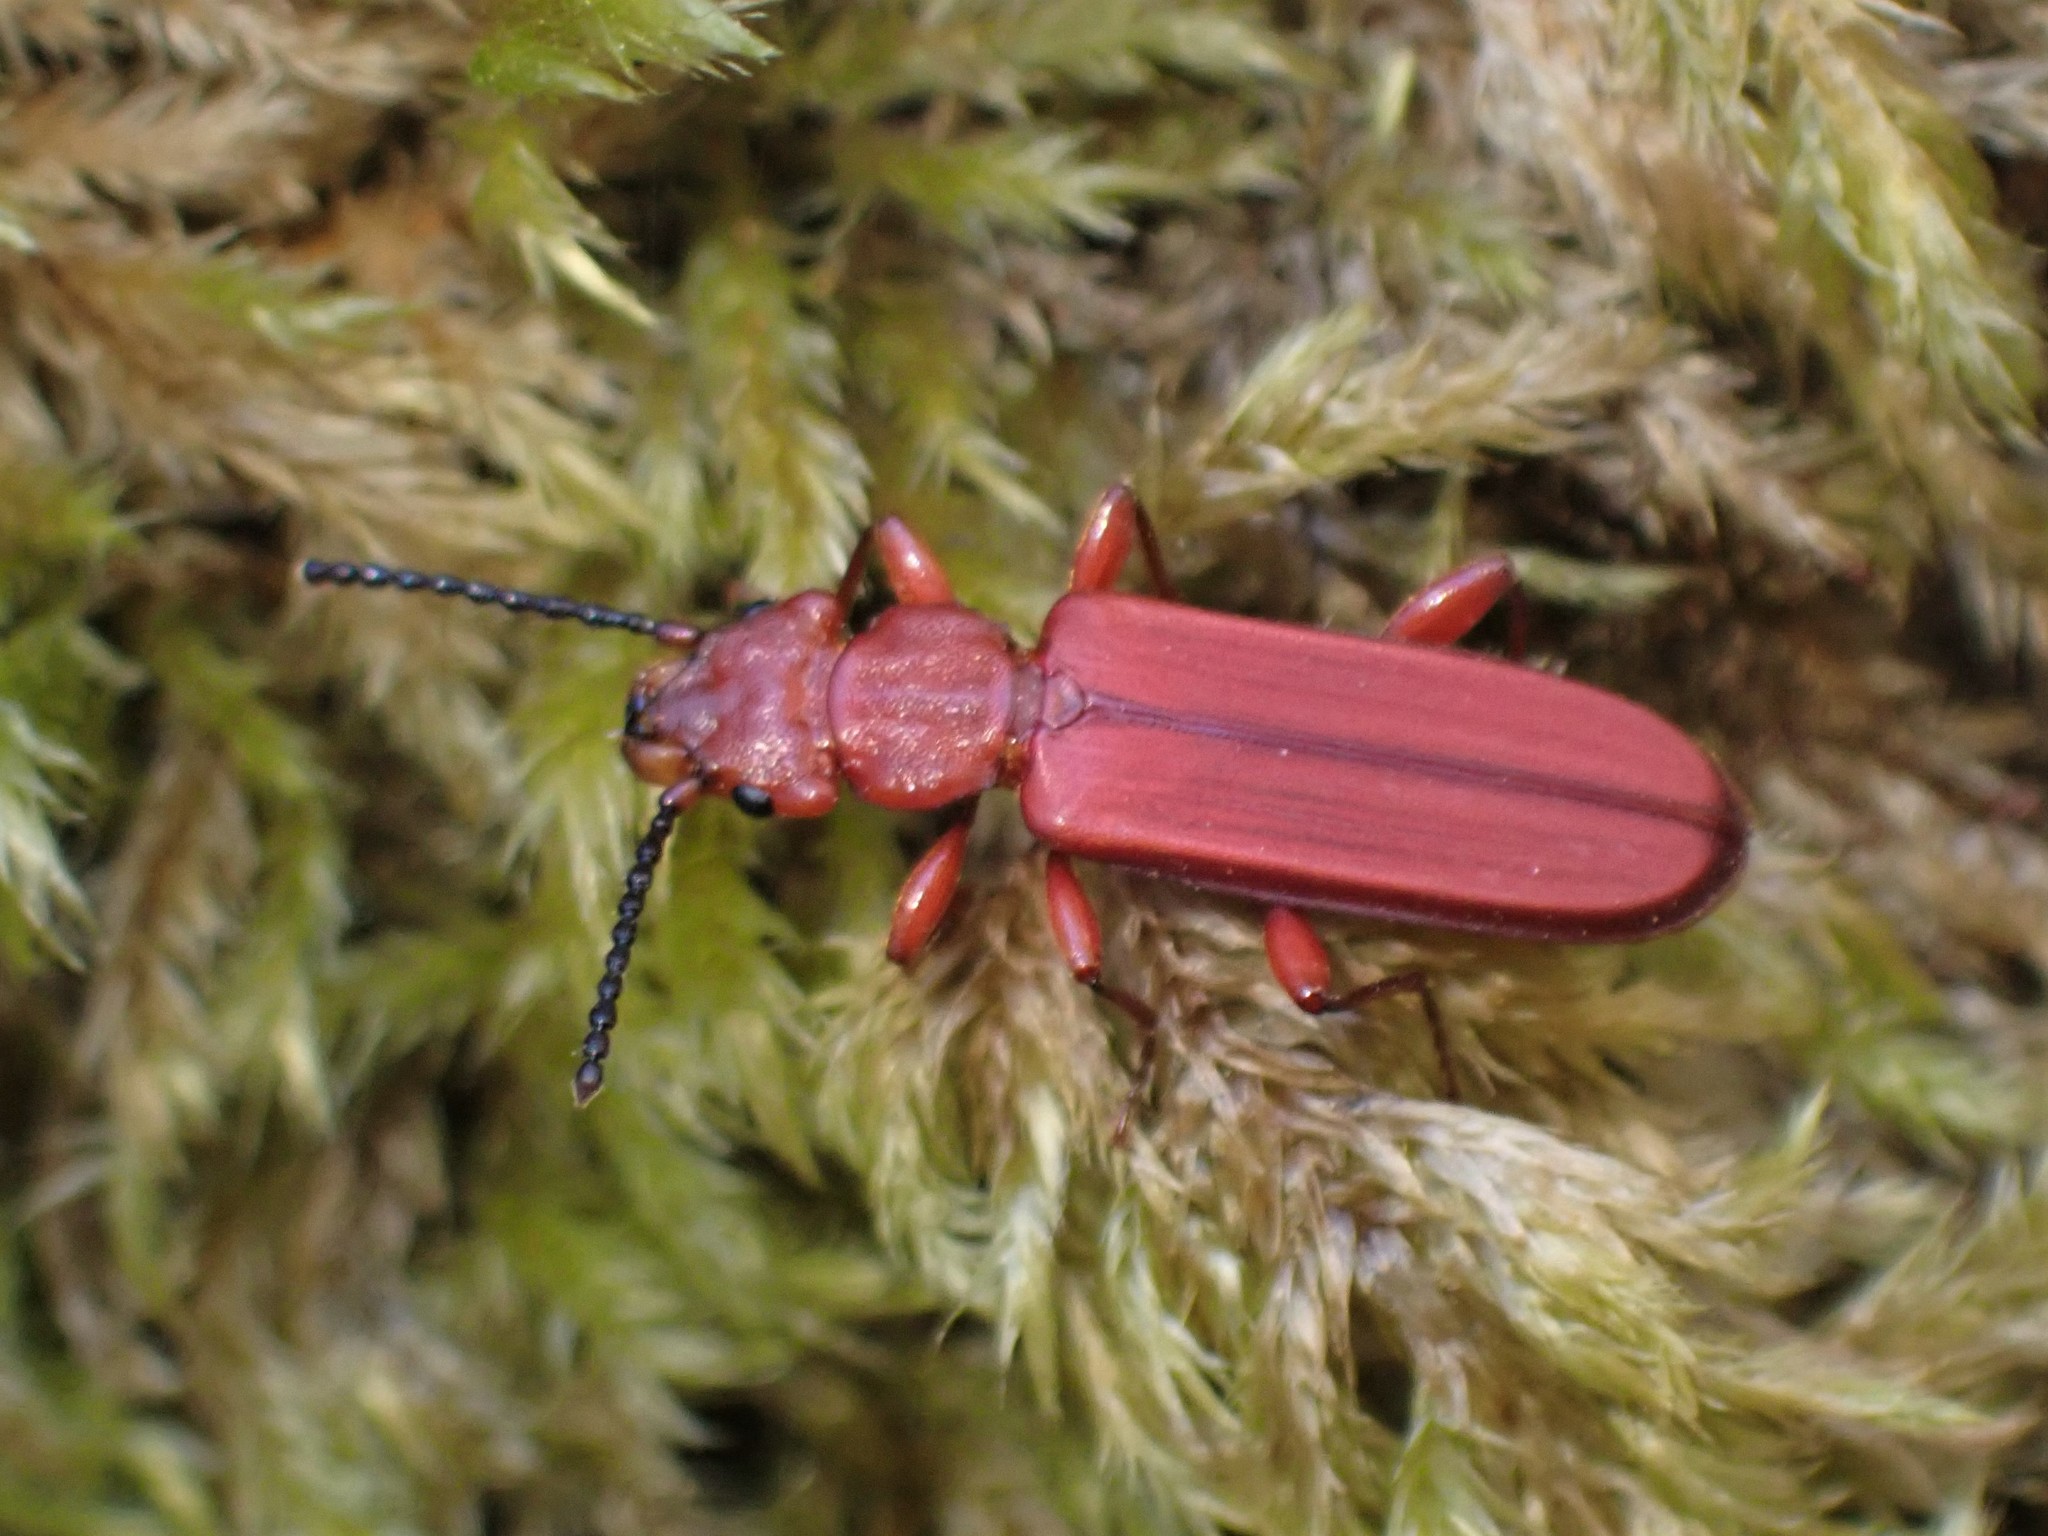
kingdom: Animalia
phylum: Arthropoda
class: Insecta
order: Coleoptera
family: Cucujidae
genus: Cucujus
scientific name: Cucujus clavipes
